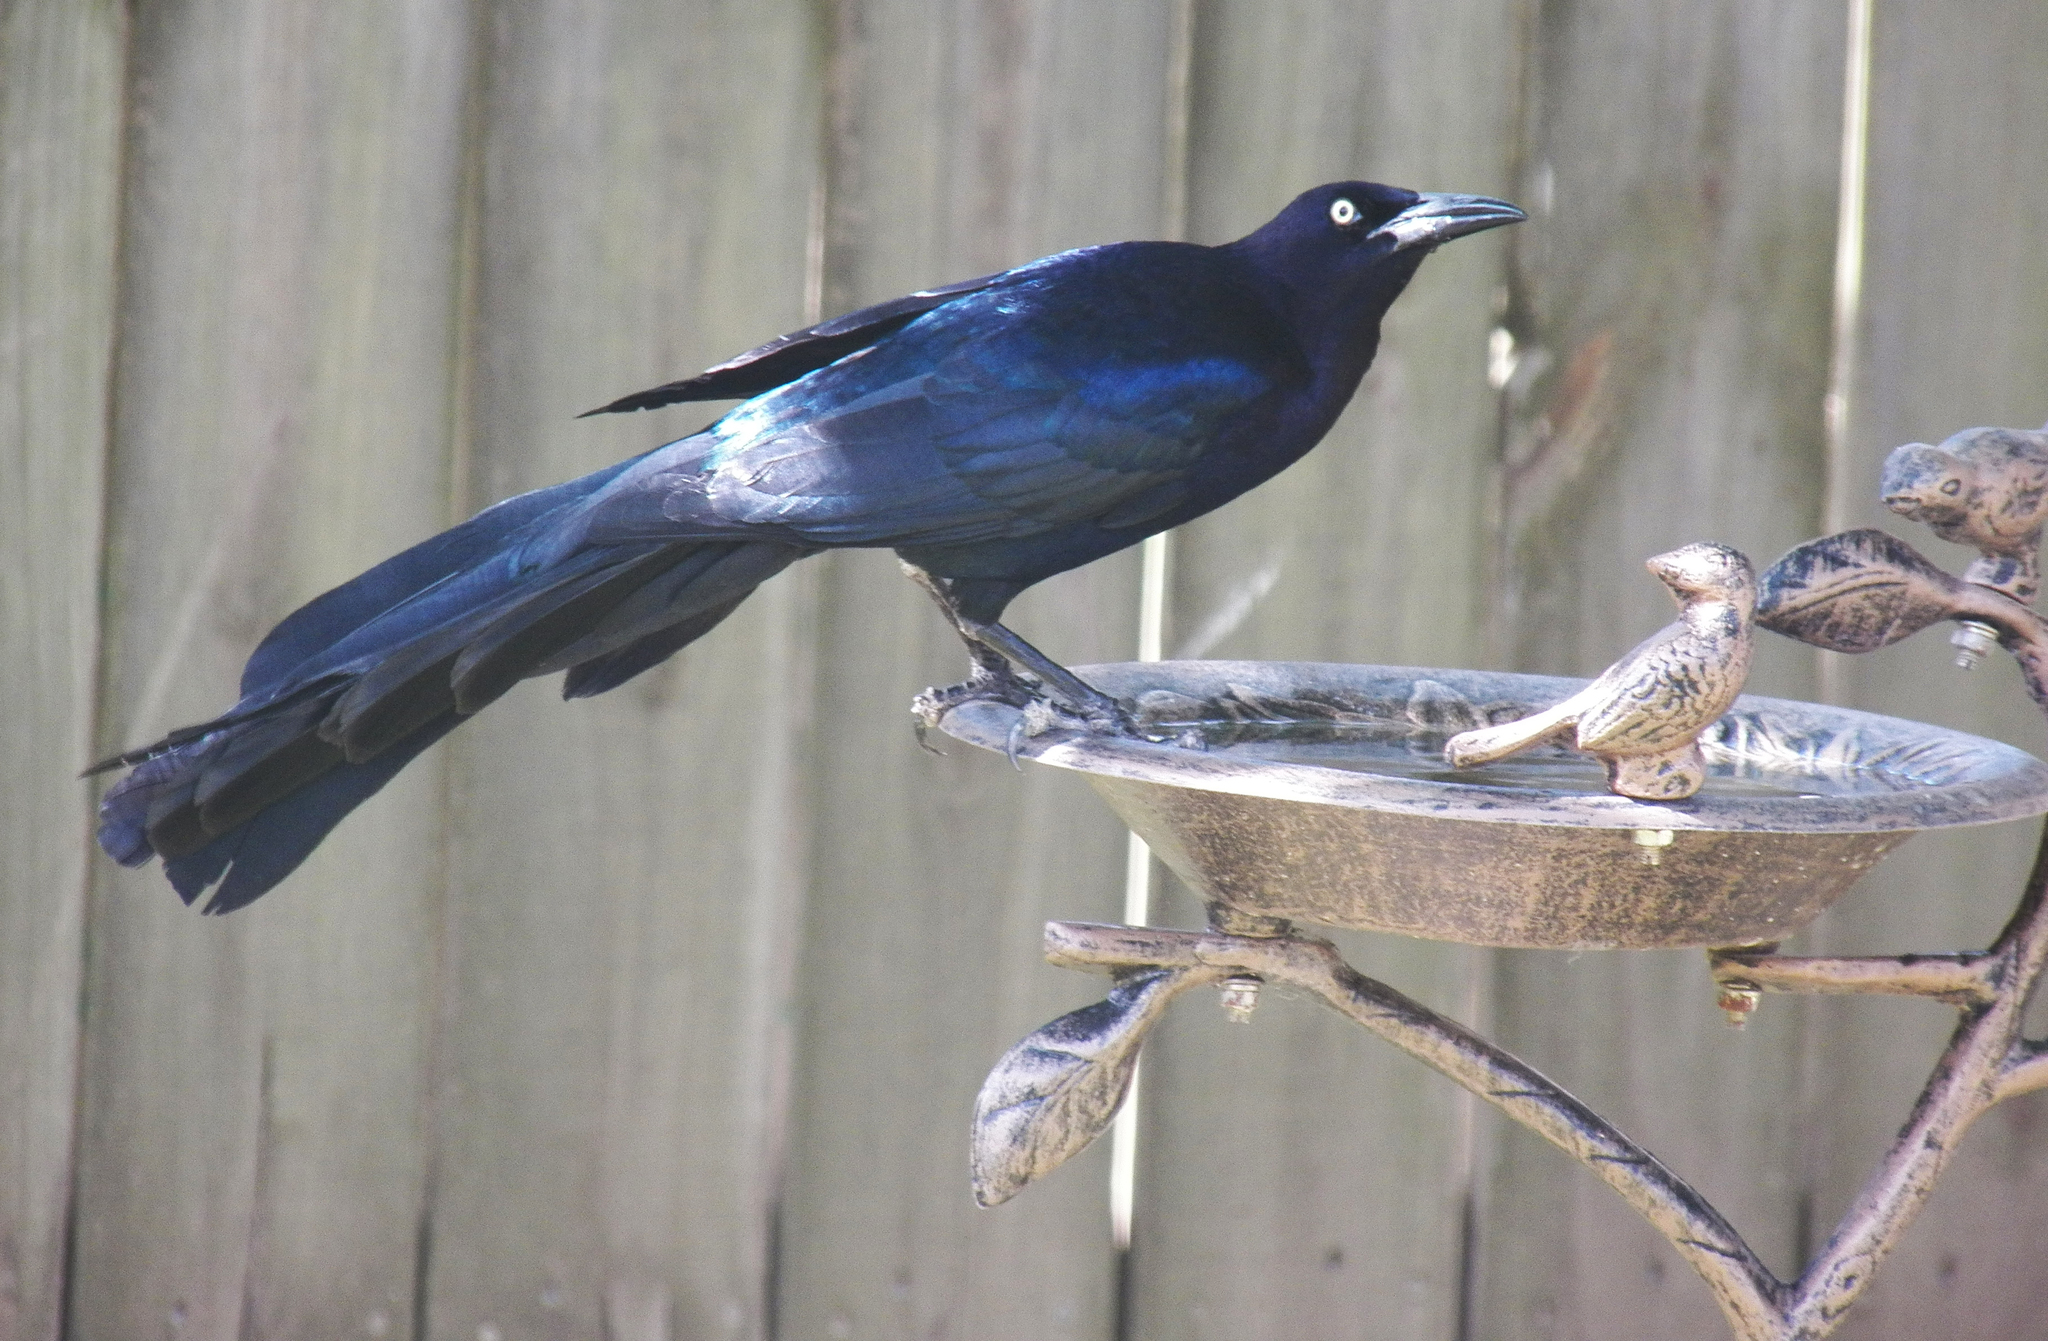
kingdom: Animalia
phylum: Chordata
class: Aves
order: Passeriformes
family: Icteridae
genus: Quiscalus
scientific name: Quiscalus mexicanus
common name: Great-tailed grackle
